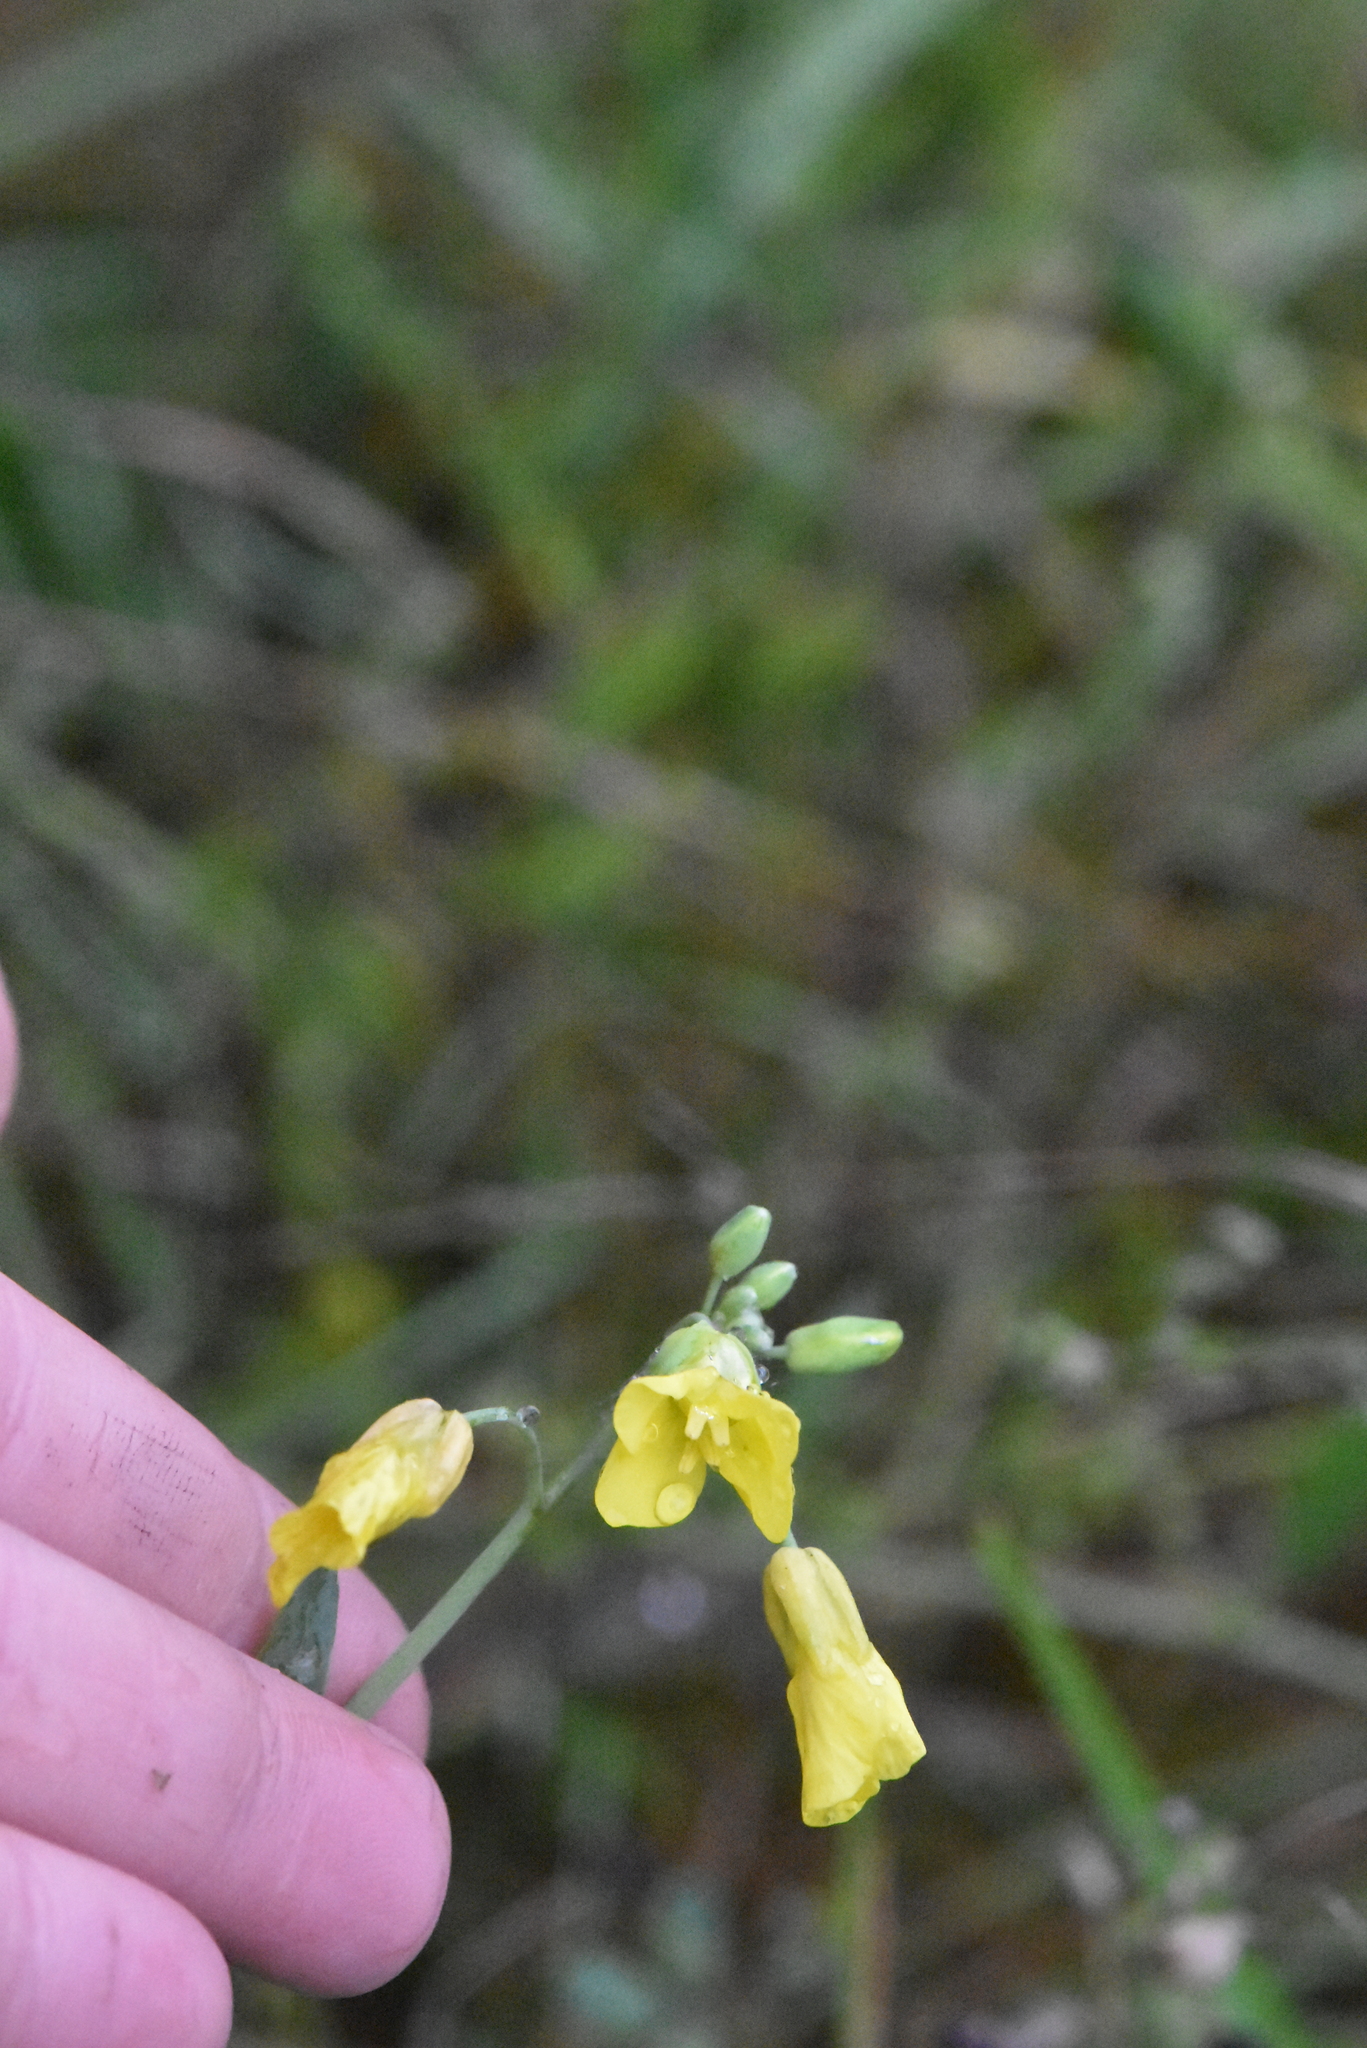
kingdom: Plantae
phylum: Tracheophyta
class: Magnoliopsida
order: Brassicales
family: Brassicaceae
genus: Brassica
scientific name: Brassica napus
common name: Rape
